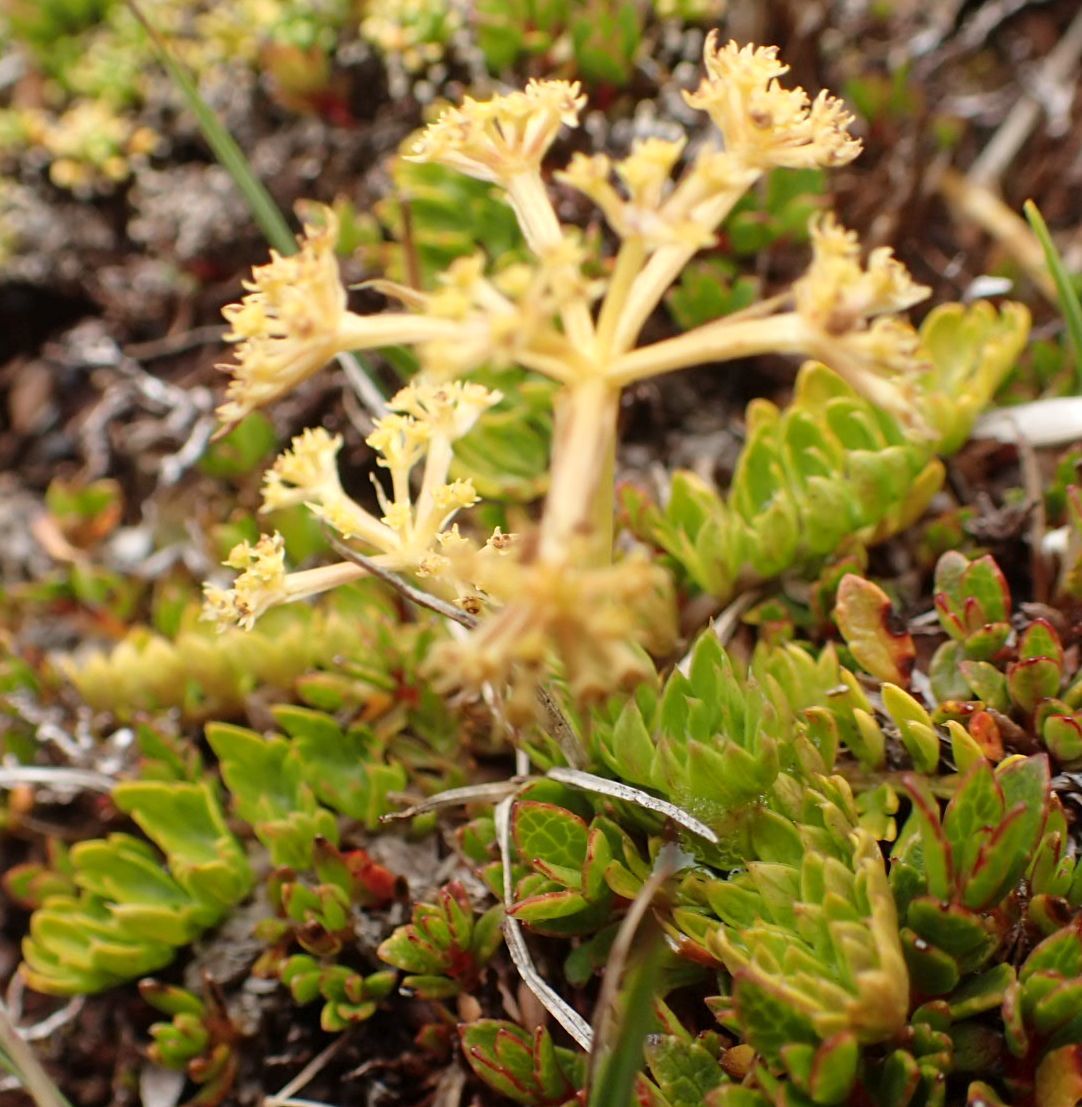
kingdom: Plantae
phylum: Tracheophyta
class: Magnoliopsida
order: Apiales
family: Apiaceae
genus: Anisotome
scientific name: Anisotome flexuosa
